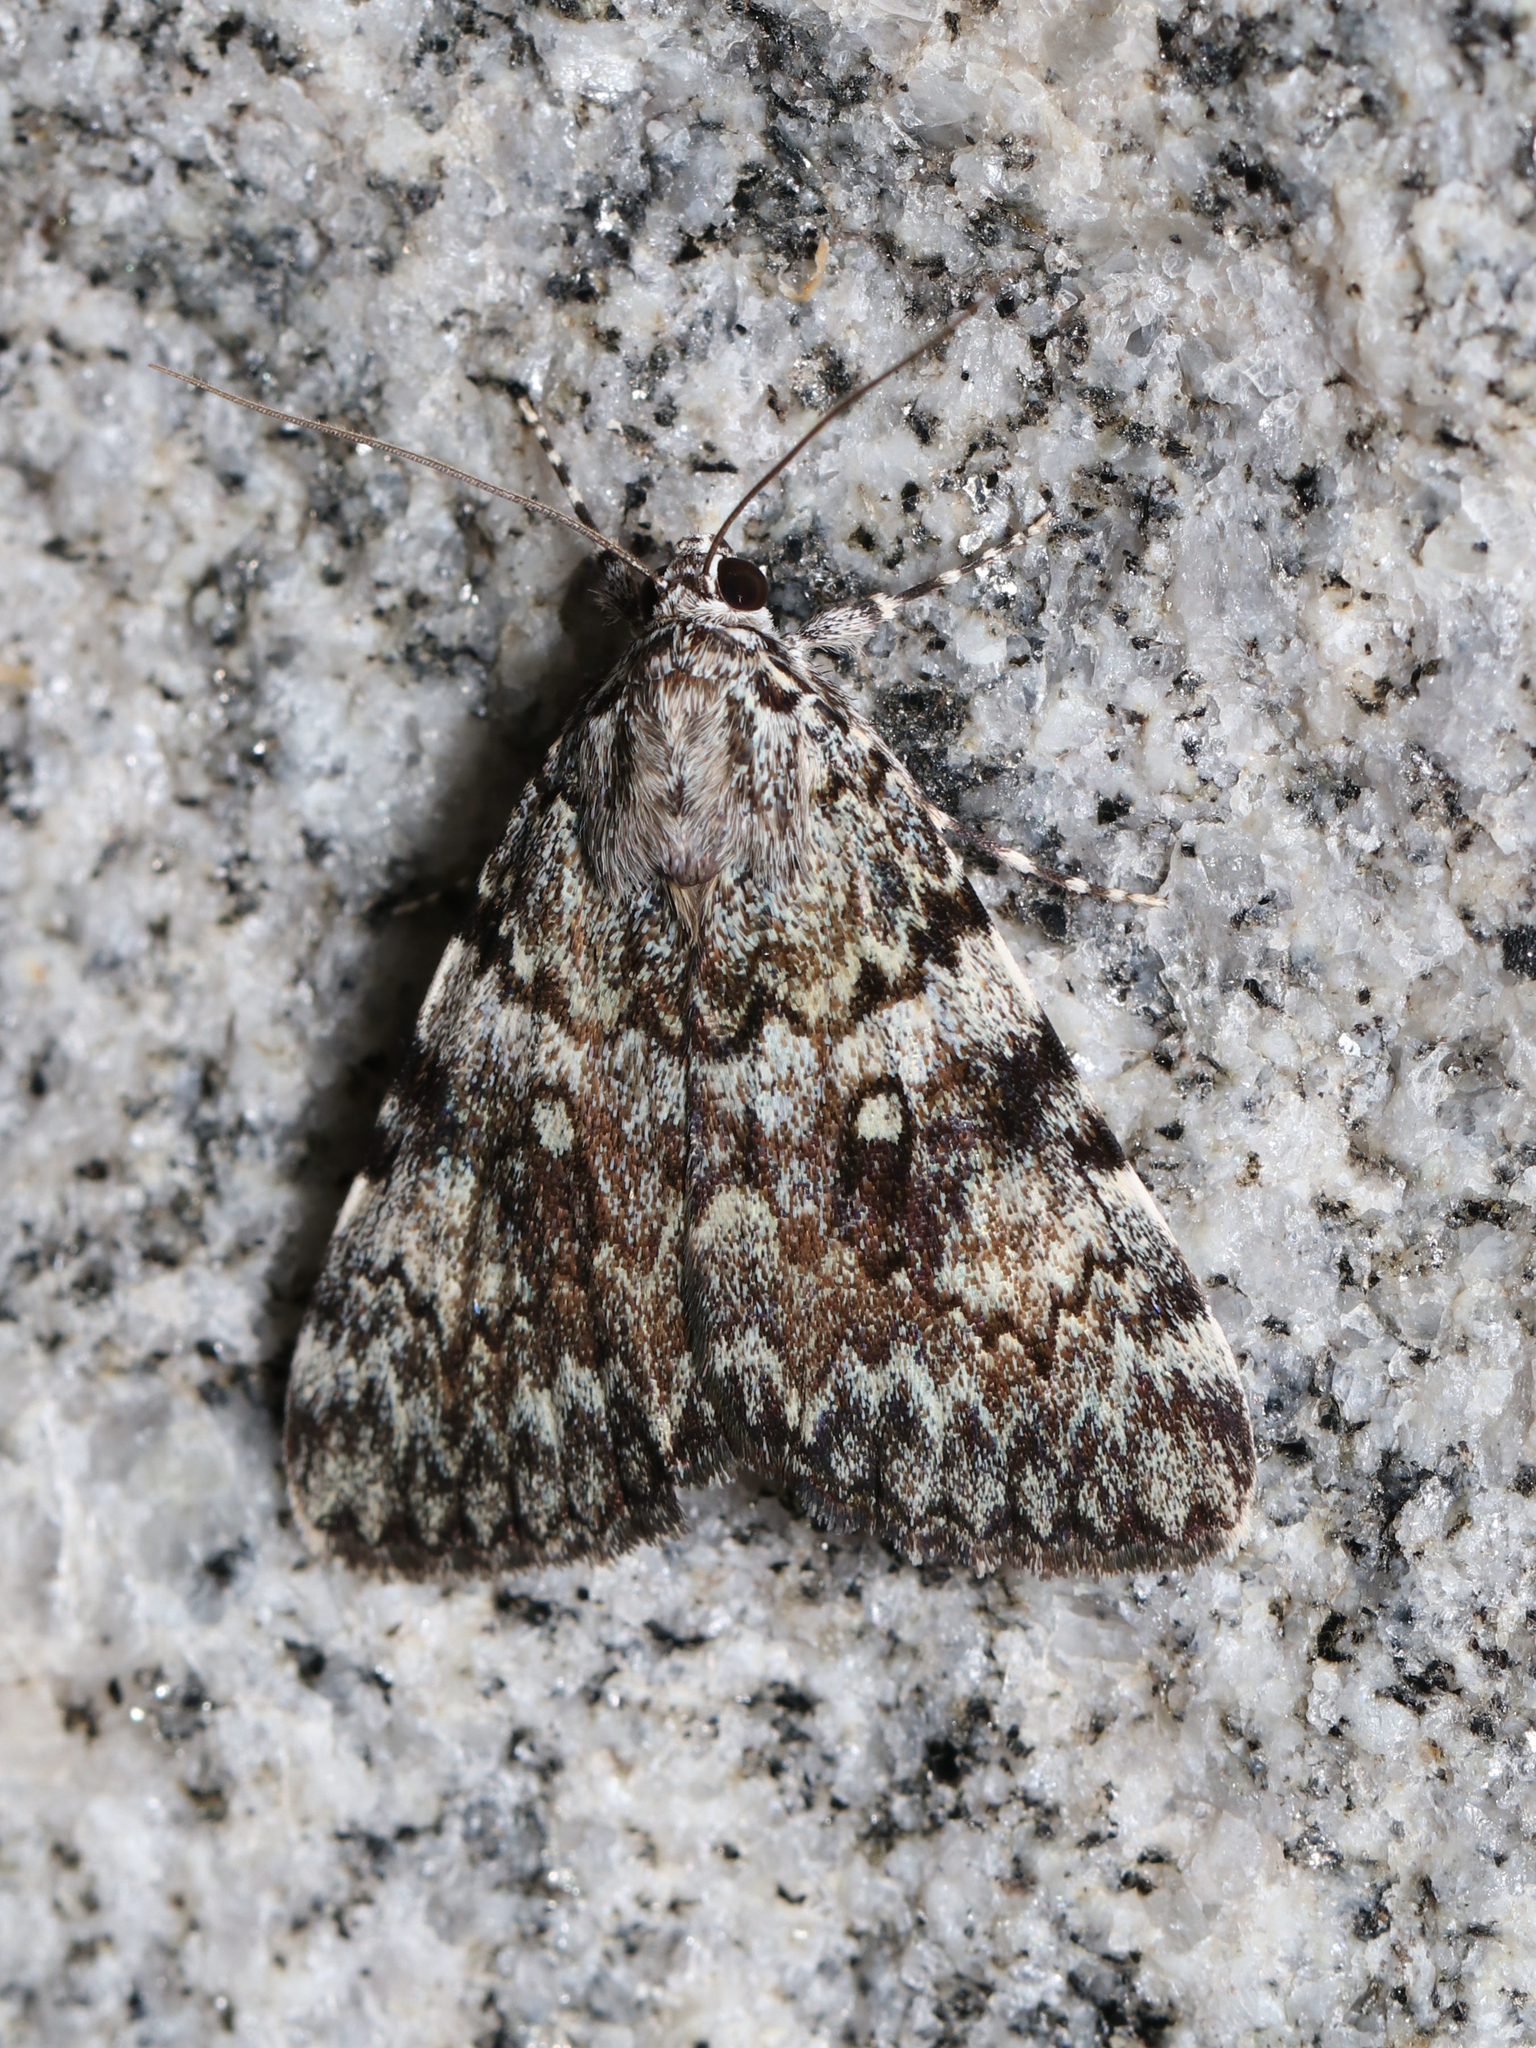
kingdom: Animalia
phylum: Arthropoda
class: Insecta
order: Lepidoptera
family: Erebidae
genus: Catocala
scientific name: Catocala lineella
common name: Little lined underwing
